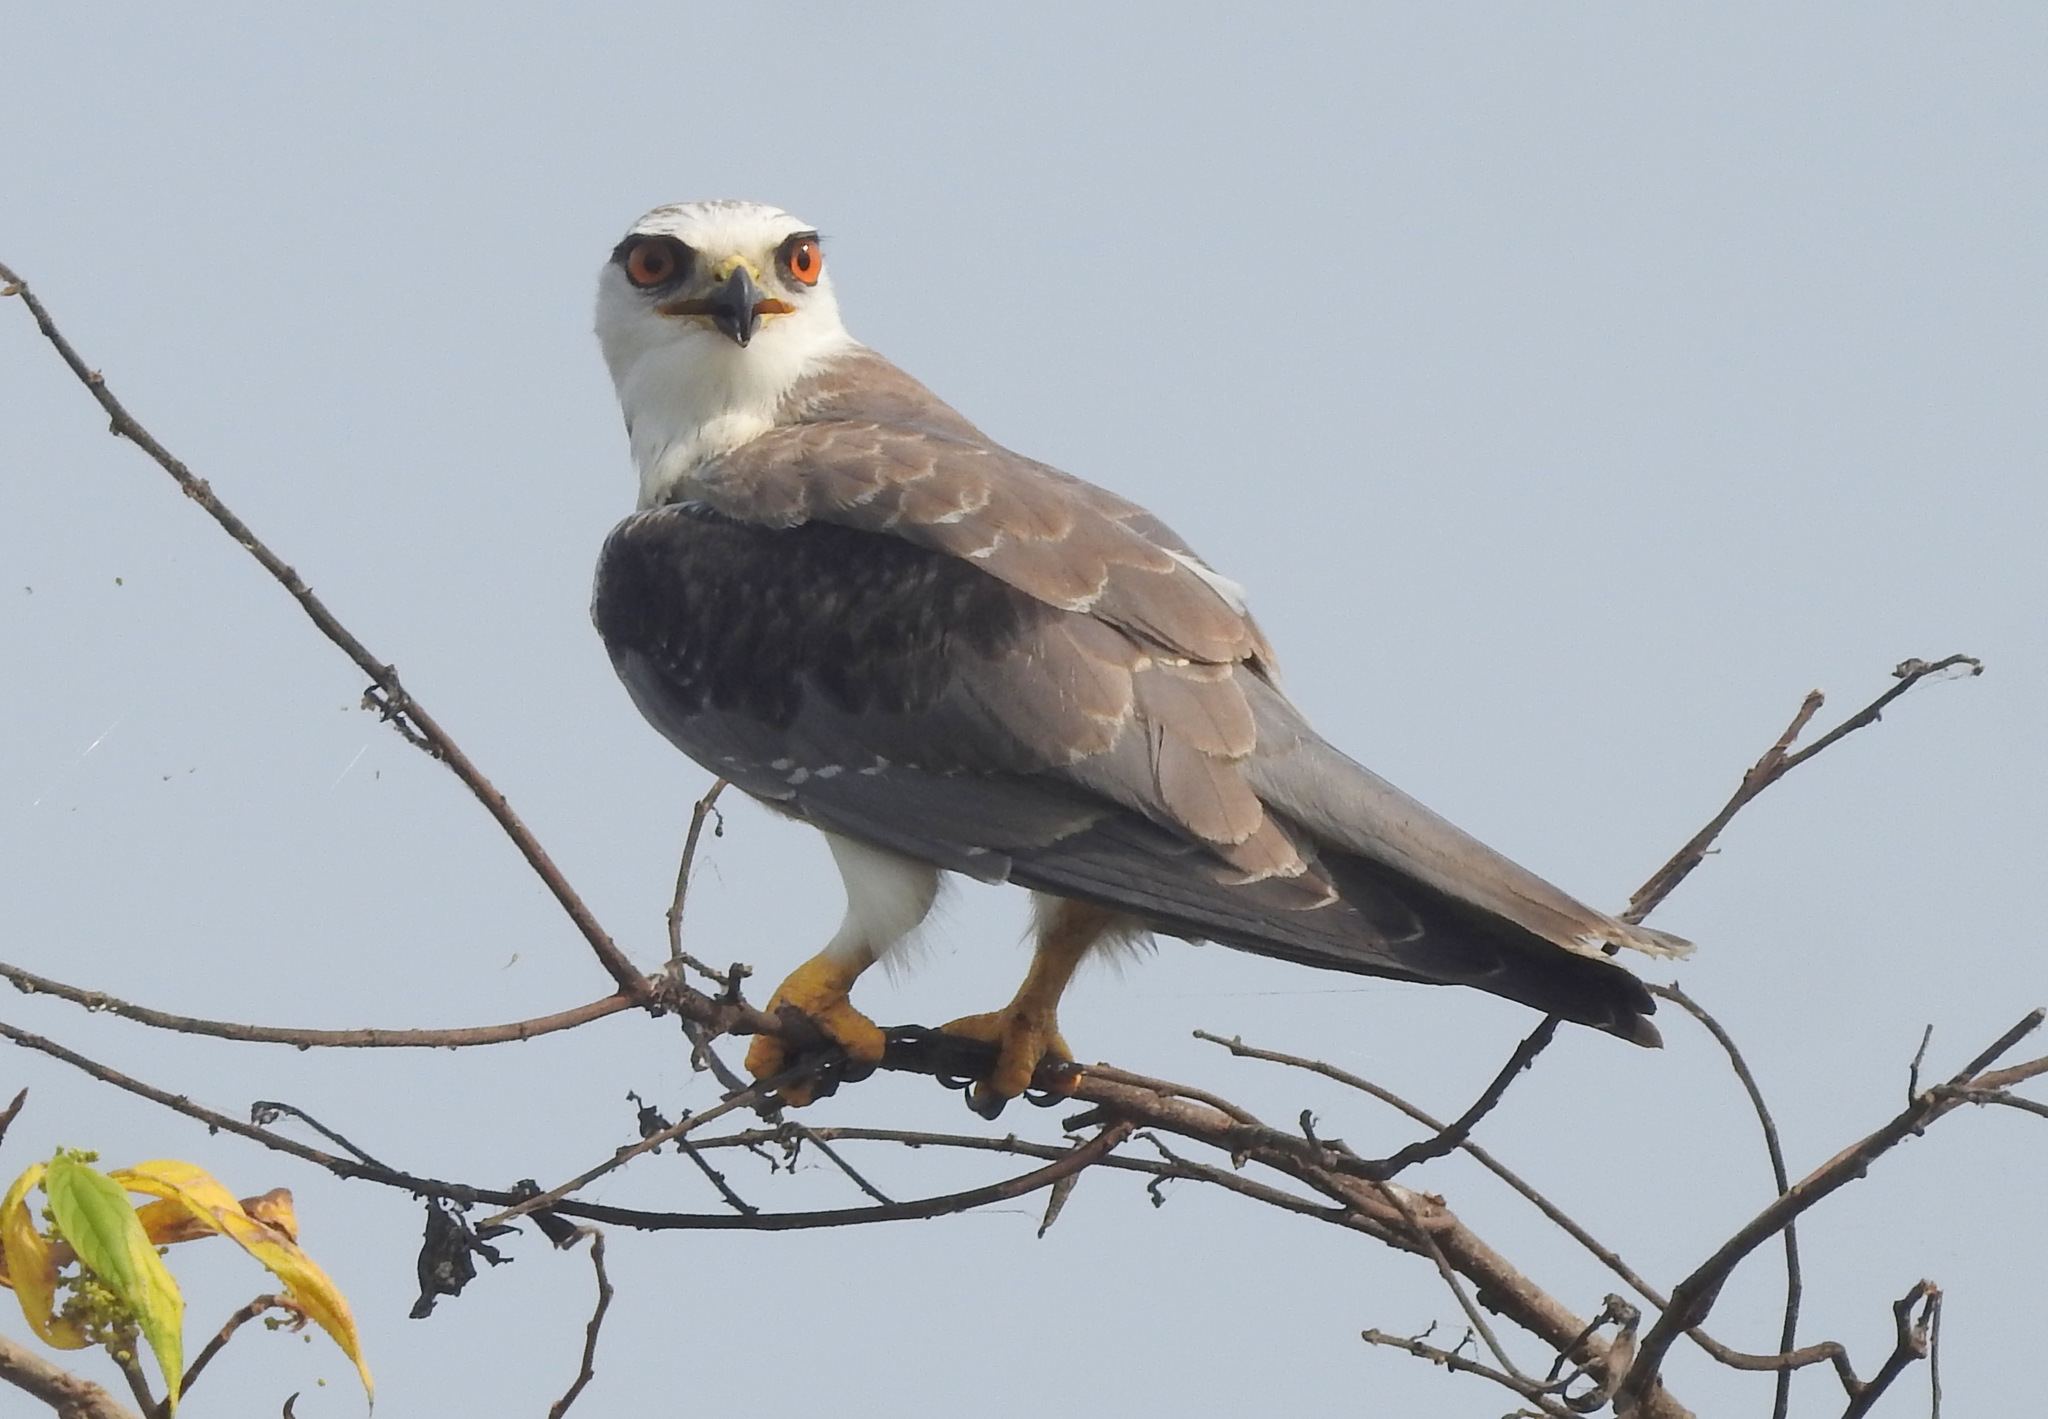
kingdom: Animalia
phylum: Chordata
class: Aves
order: Accipitriformes
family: Accipitridae
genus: Elanus
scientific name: Elanus caeruleus
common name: Black-winged kite
